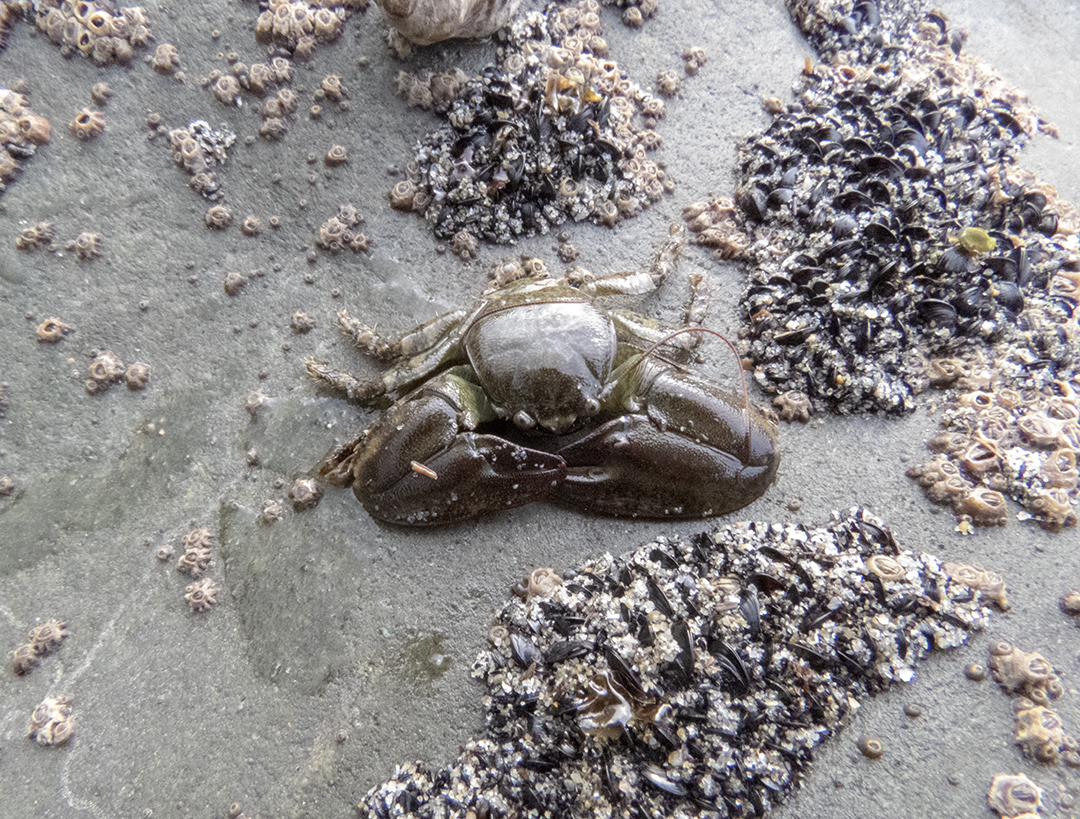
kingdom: Animalia
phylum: Arthropoda
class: Malacostraca
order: Decapoda
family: Porcellanidae
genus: Petrolisthes
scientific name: Petrolisthes elongatus
